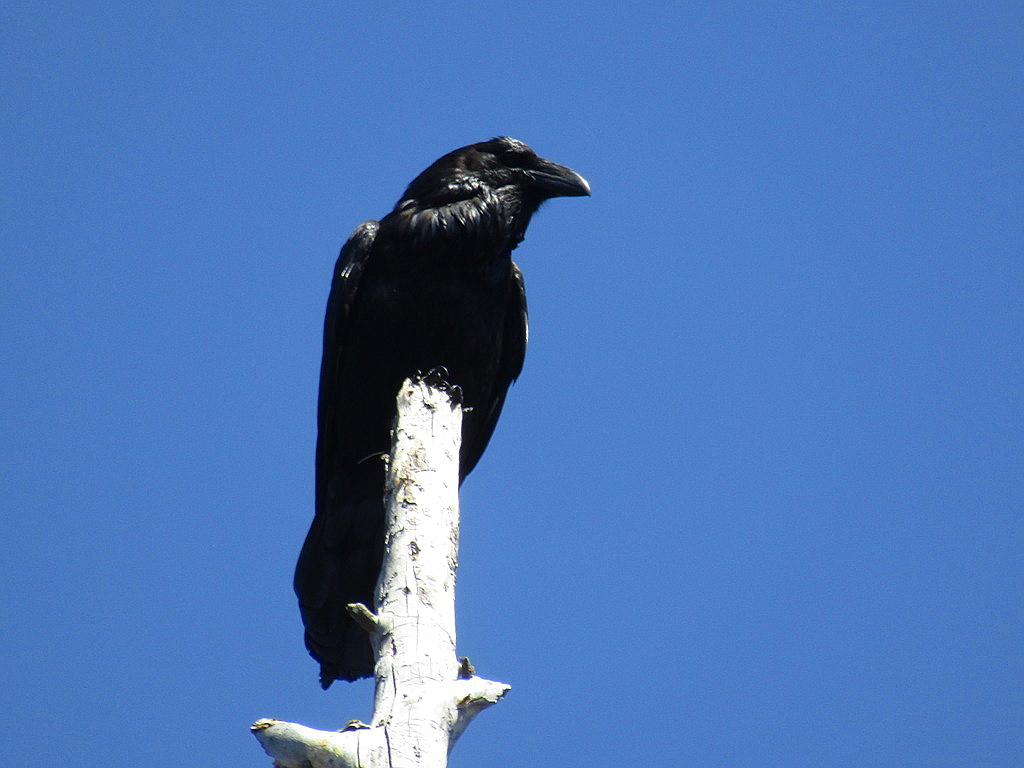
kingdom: Animalia
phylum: Chordata
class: Aves
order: Passeriformes
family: Corvidae
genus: Corvus
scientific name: Corvus corax
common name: Common raven
